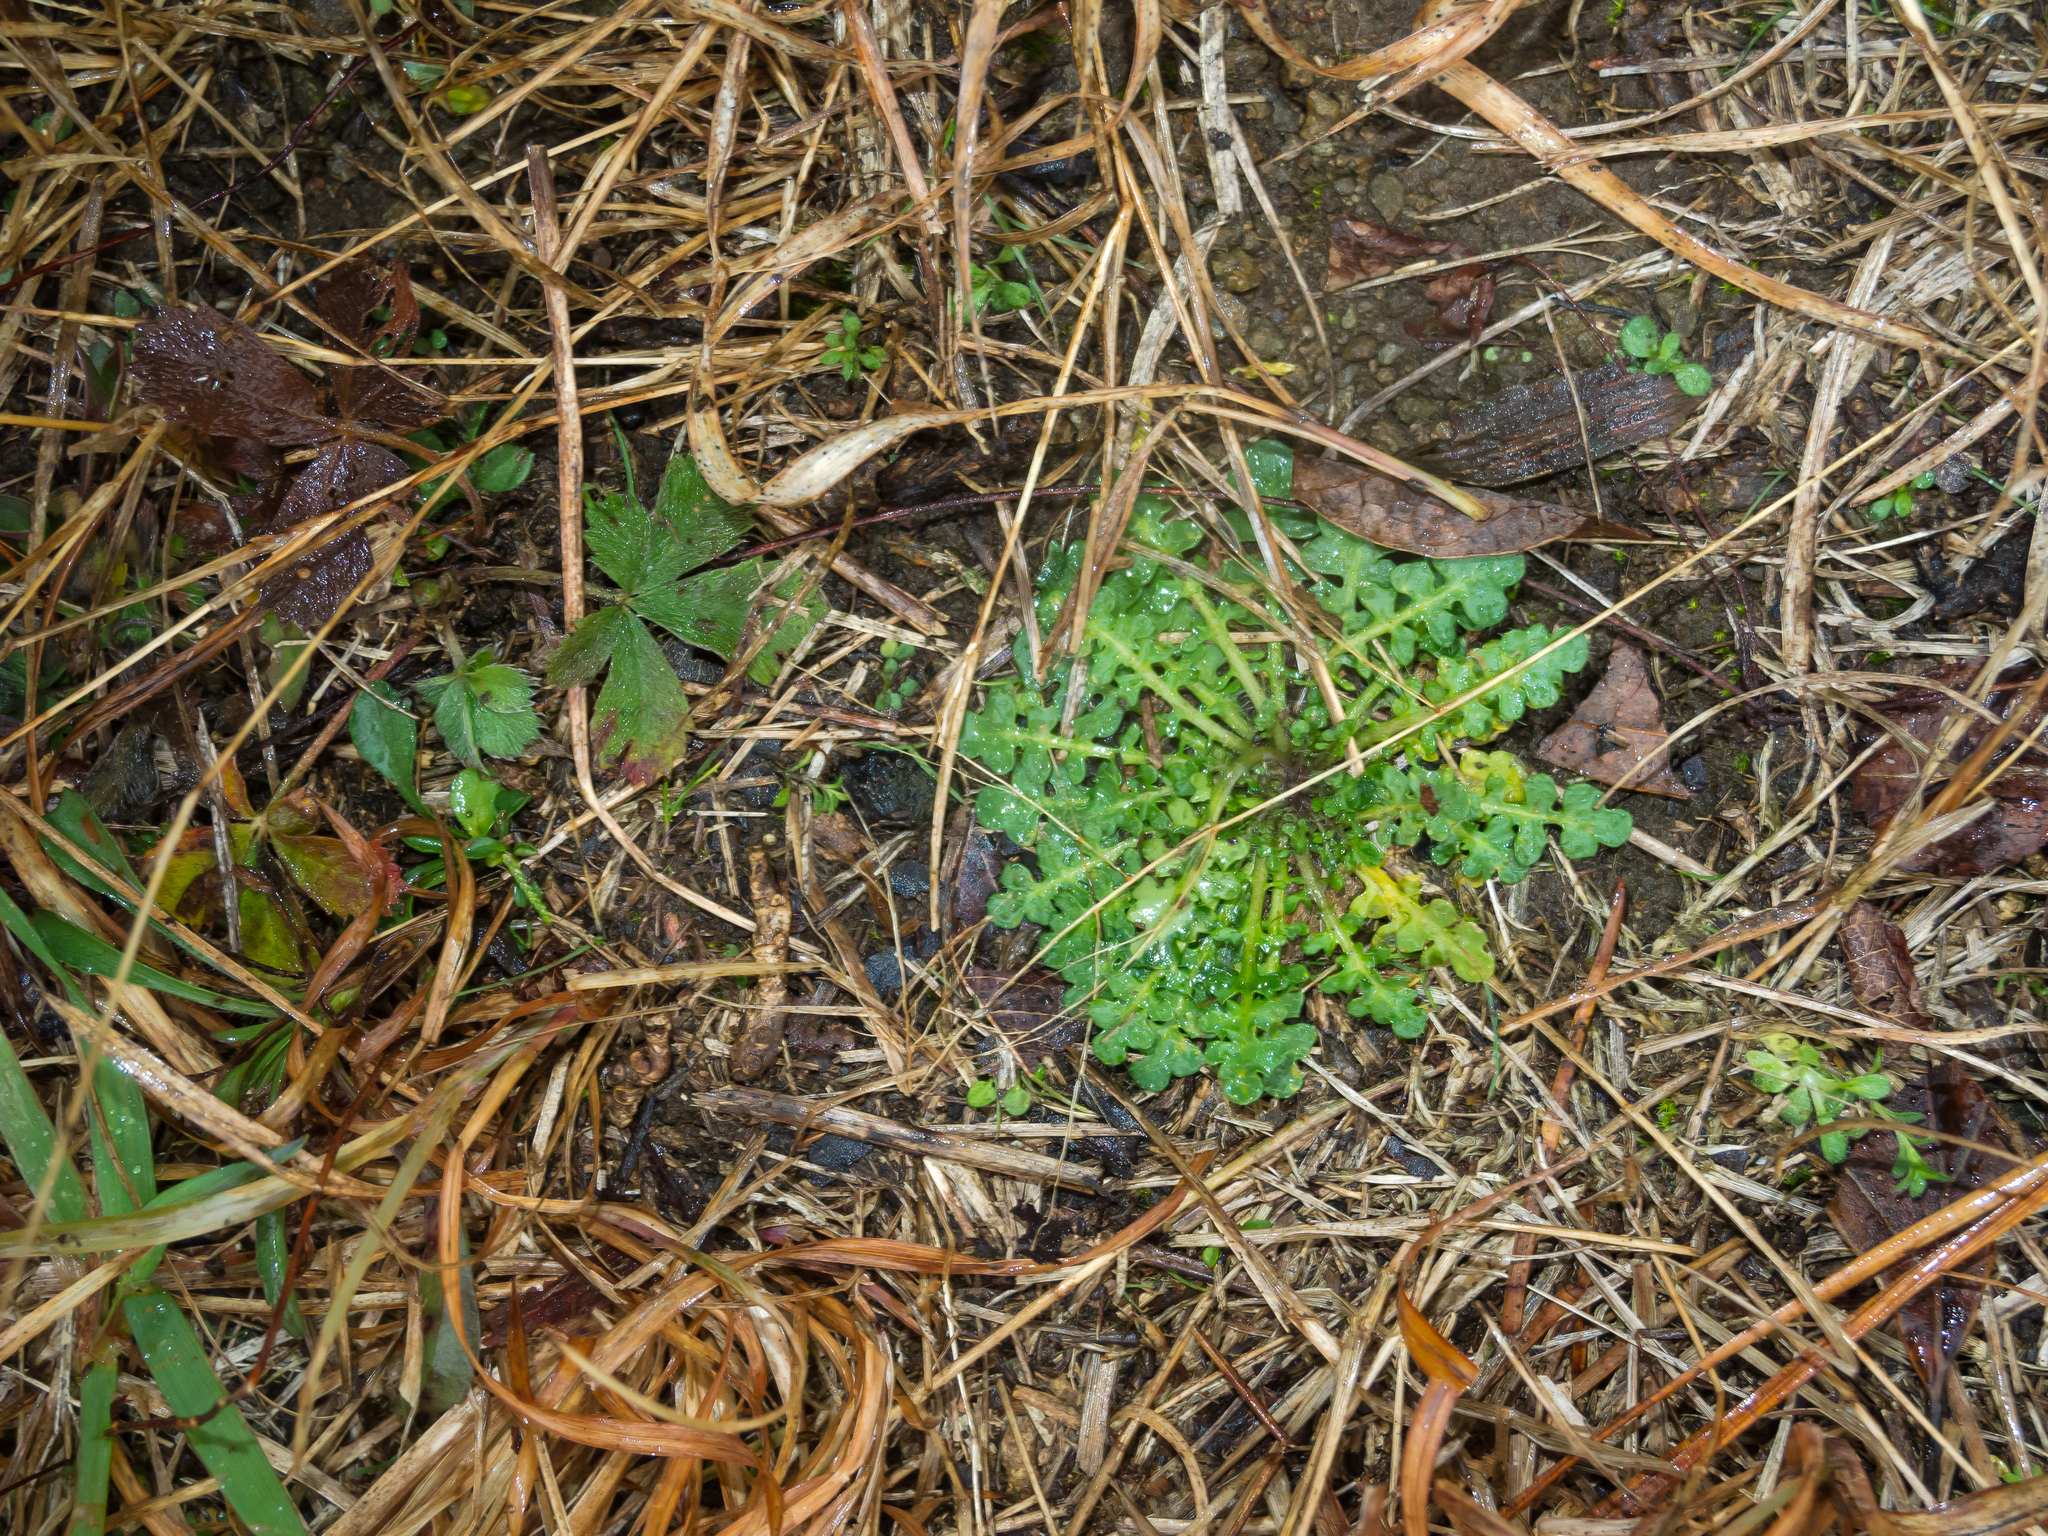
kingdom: Plantae
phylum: Tracheophyta
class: Magnoliopsida
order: Brassicales
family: Brassicaceae
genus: Arabidopsis
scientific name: Arabidopsis lyrata
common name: Lyrate rockcress
